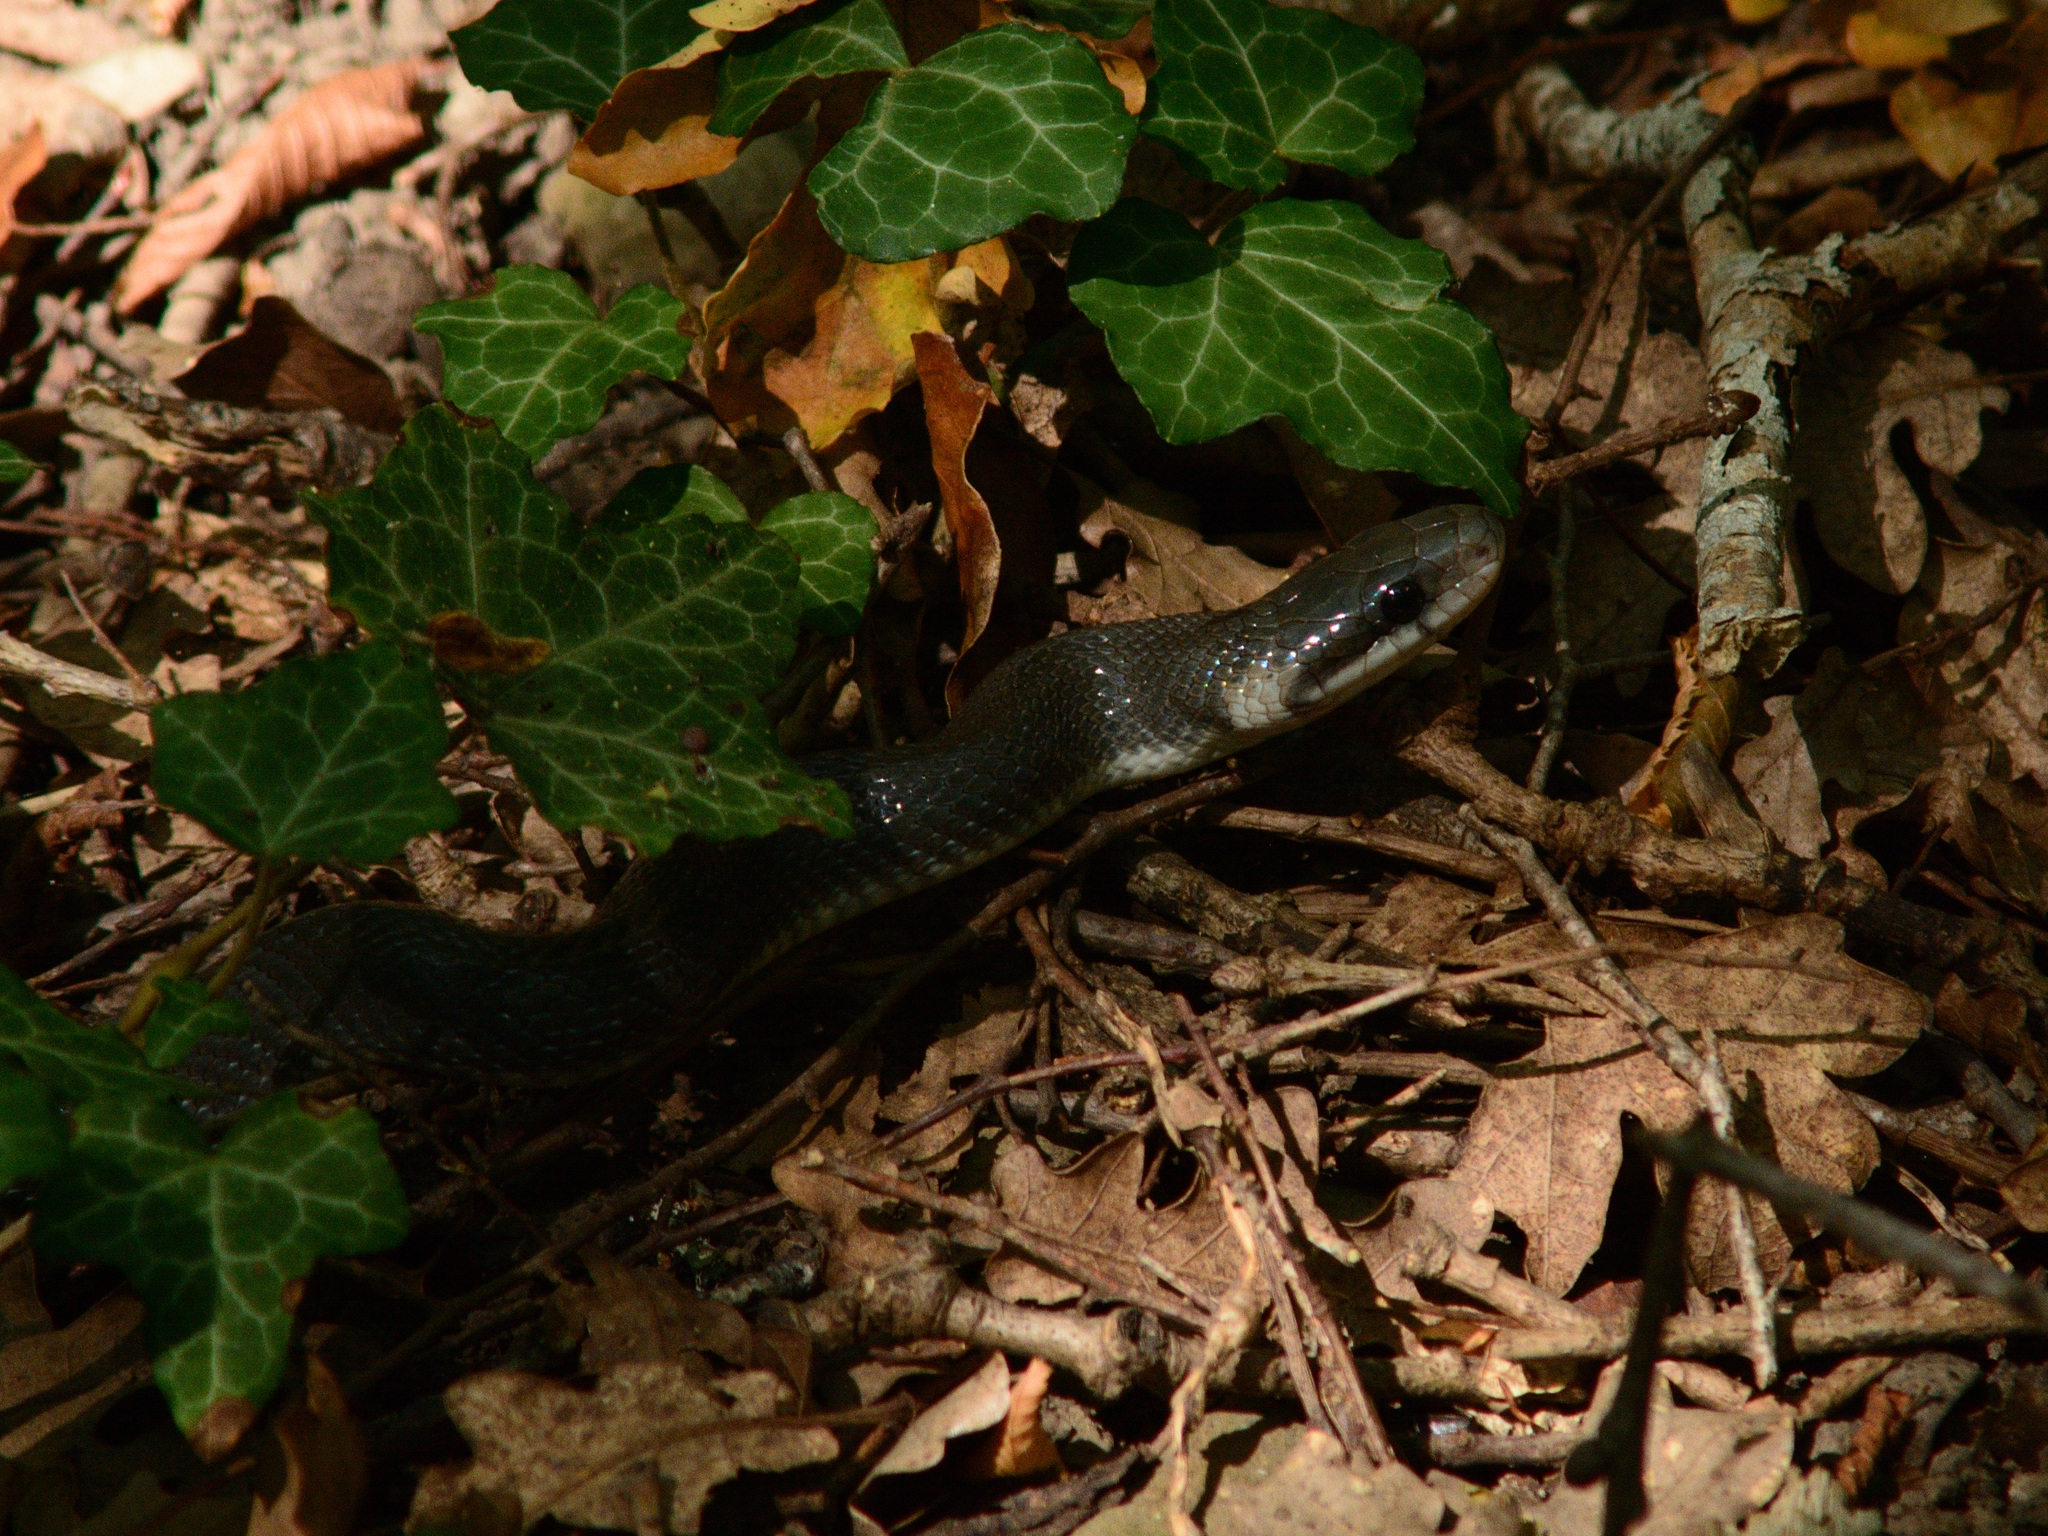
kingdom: Animalia
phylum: Chordata
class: Squamata
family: Colubridae
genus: Zamenis
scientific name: Zamenis longissimus
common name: Aesculapean snake
